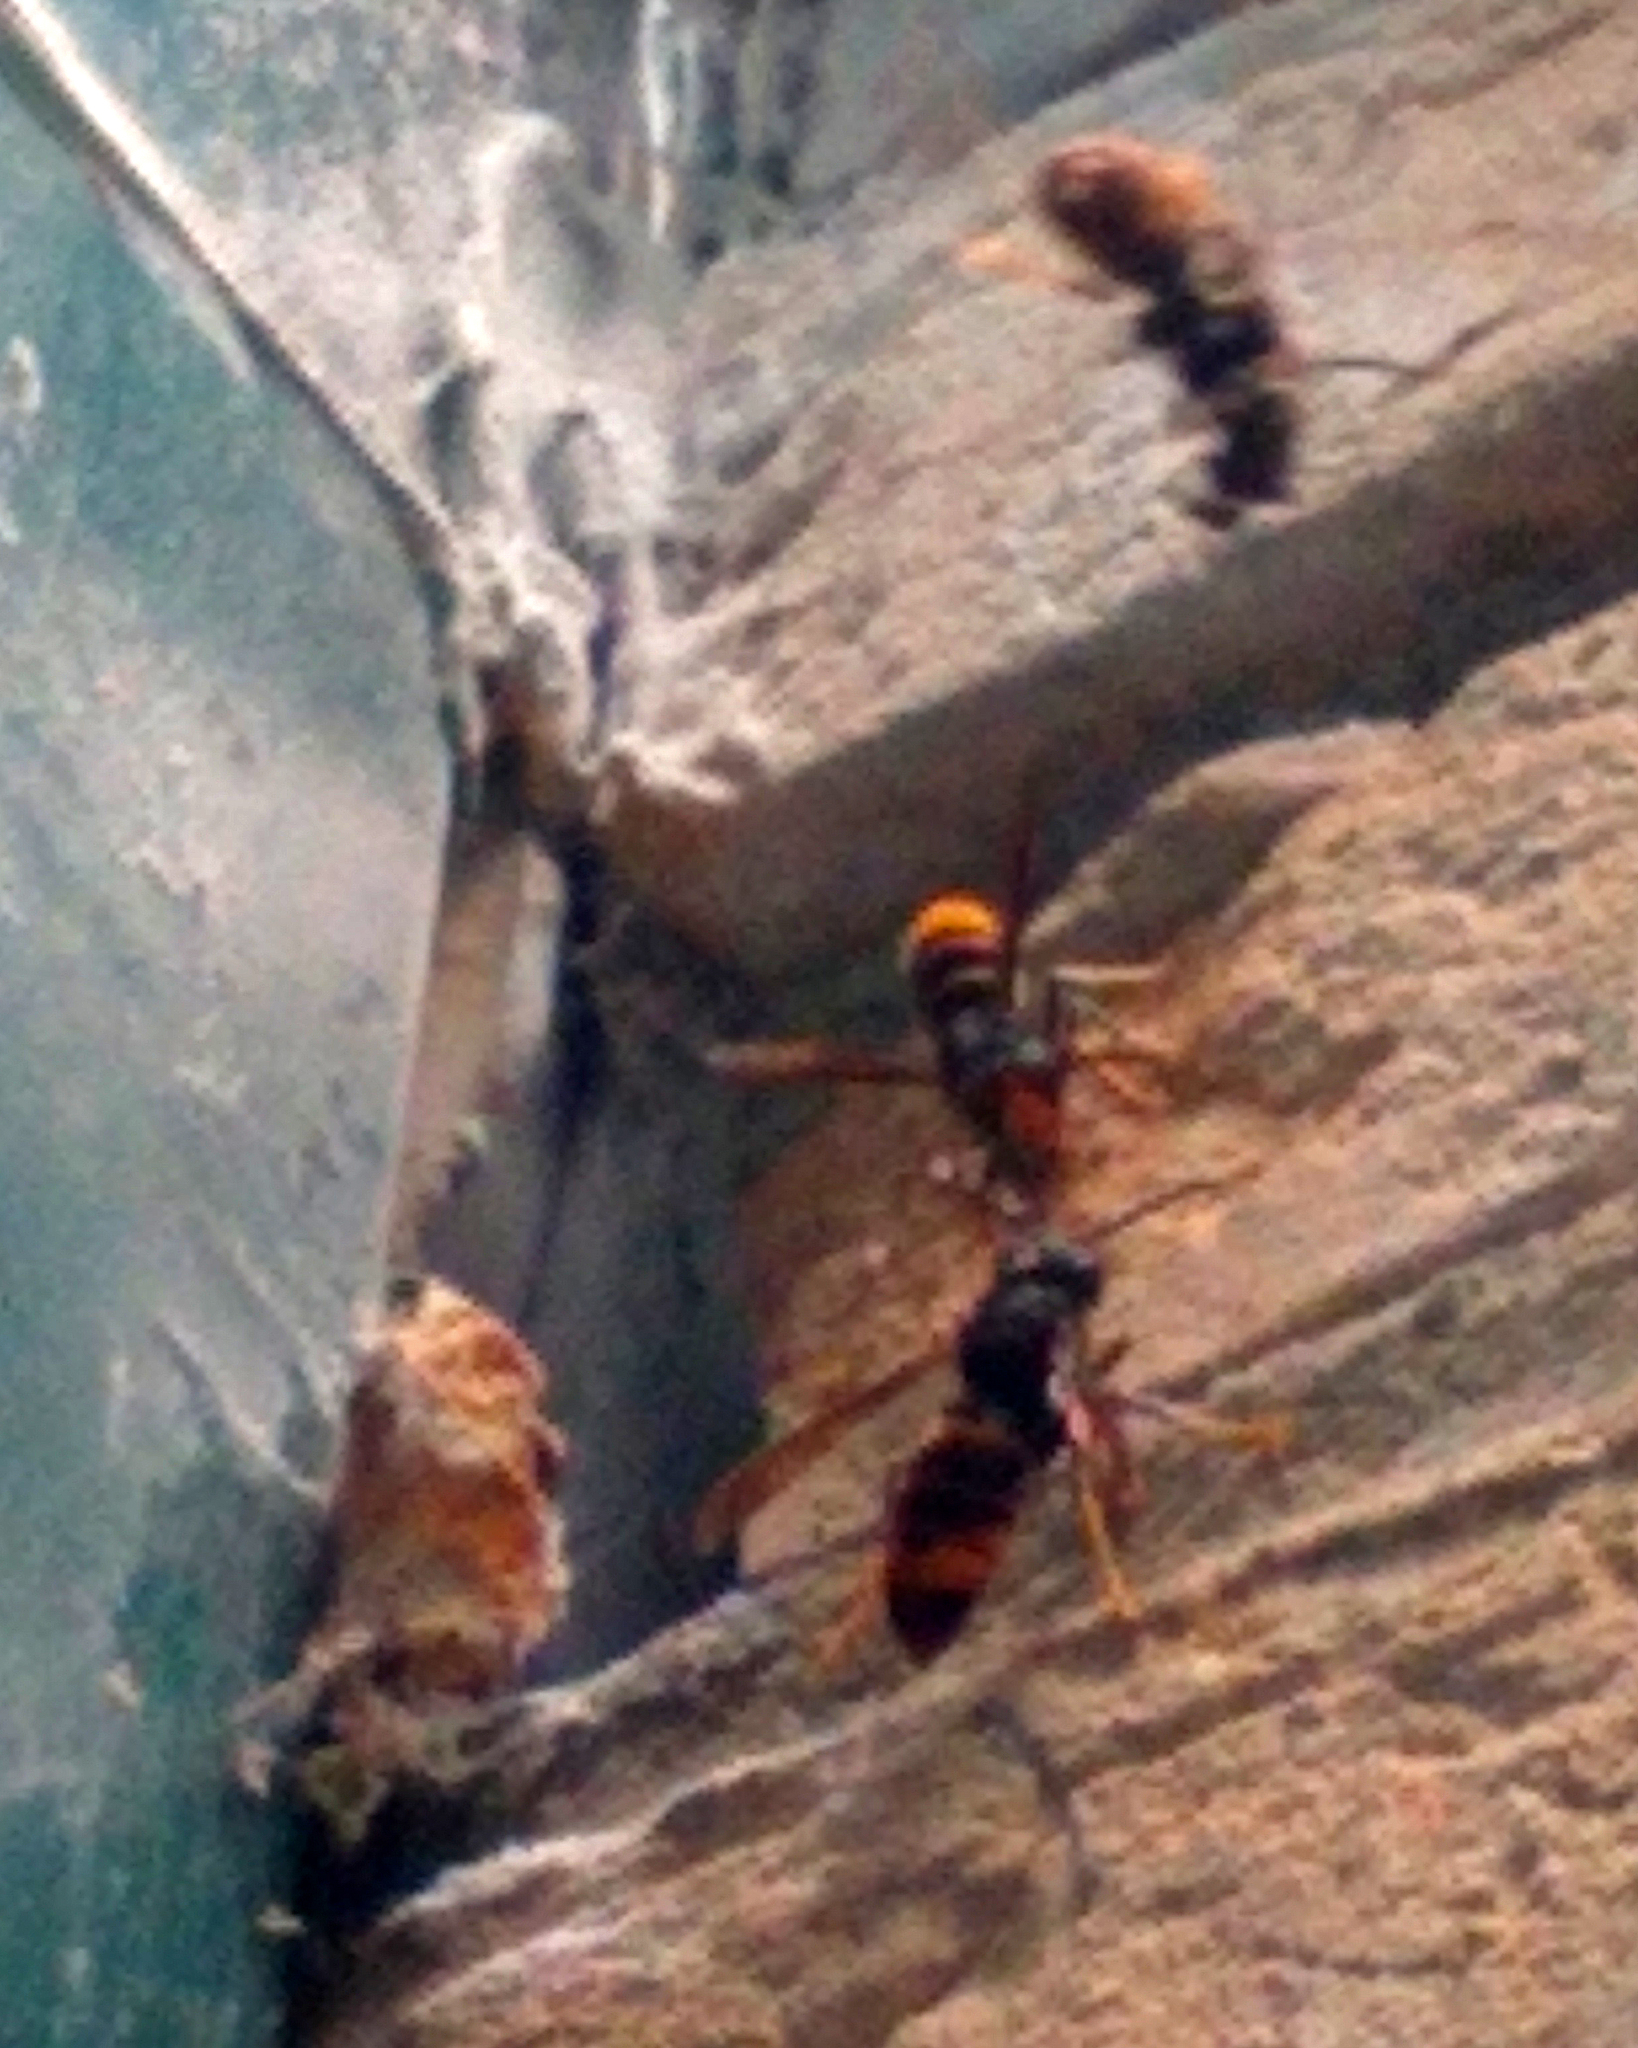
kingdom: Animalia
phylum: Arthropoda
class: Insecta
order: Hymenoptera
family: Vespidae
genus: Vespa
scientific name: Vespa velutina
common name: Asian hornet
